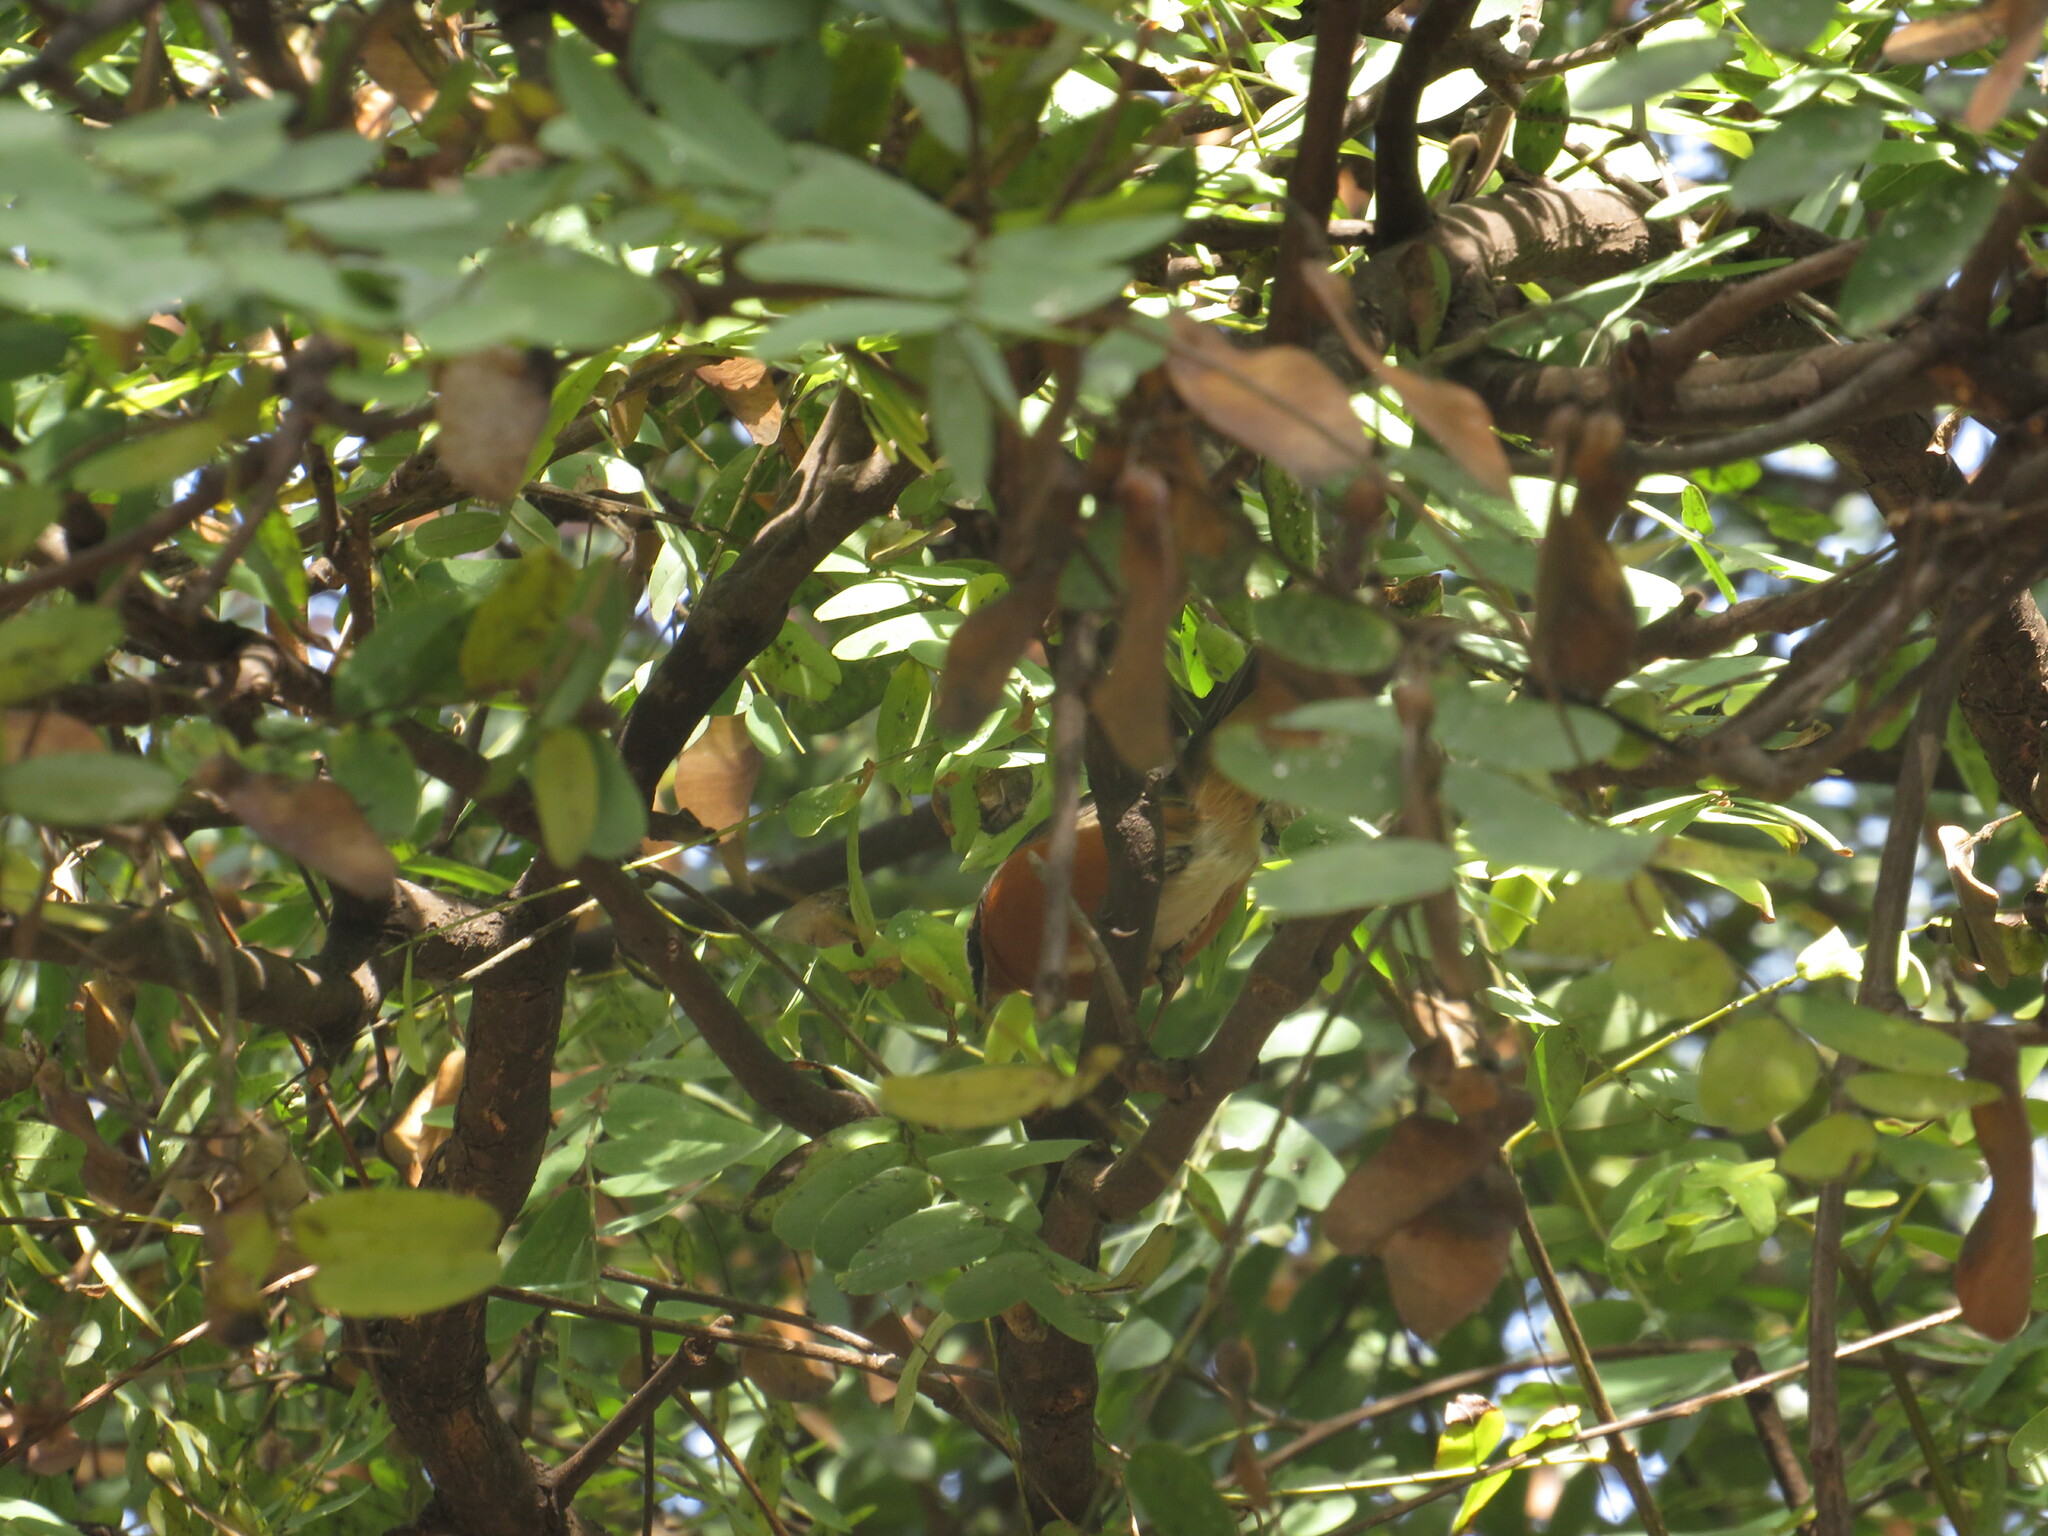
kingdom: Animalia
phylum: Chordata
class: Aves
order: Passeriformes
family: Thraupidae
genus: Poospiza
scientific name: Poospiza nigrorufa
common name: Black-and-rufous warbling finch
